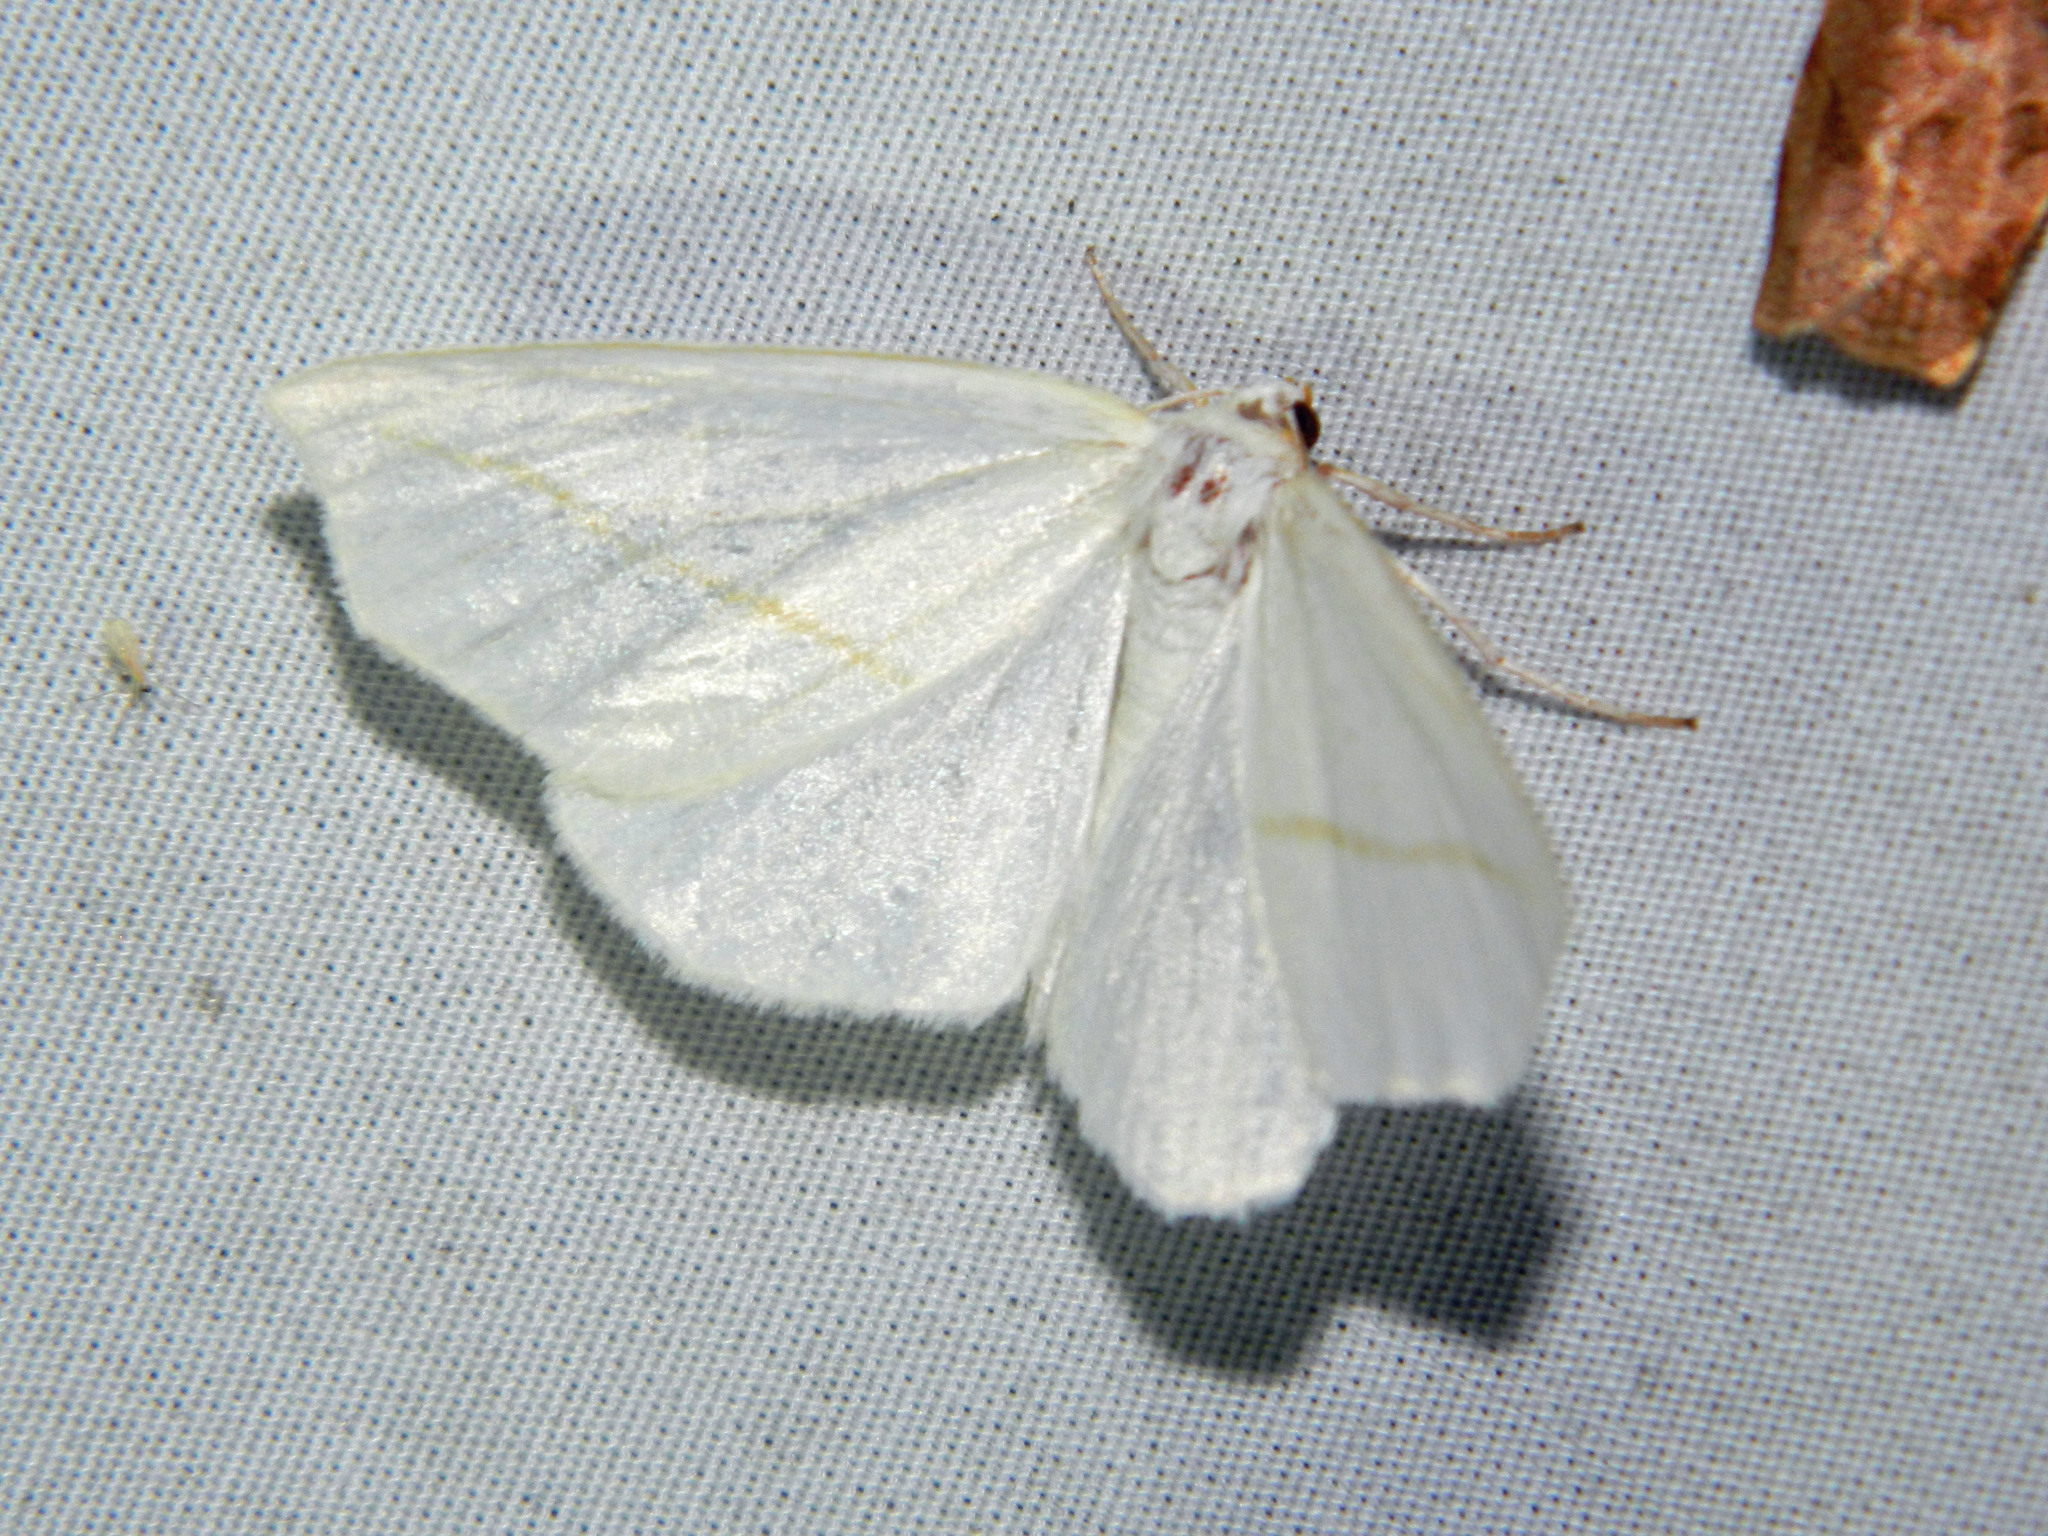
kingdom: Animalia
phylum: Arthropoda
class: Insecta
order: Lepidoptera
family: Geometridae
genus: Tetracis
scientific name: Tetracis cachexiata
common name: White slant-line
